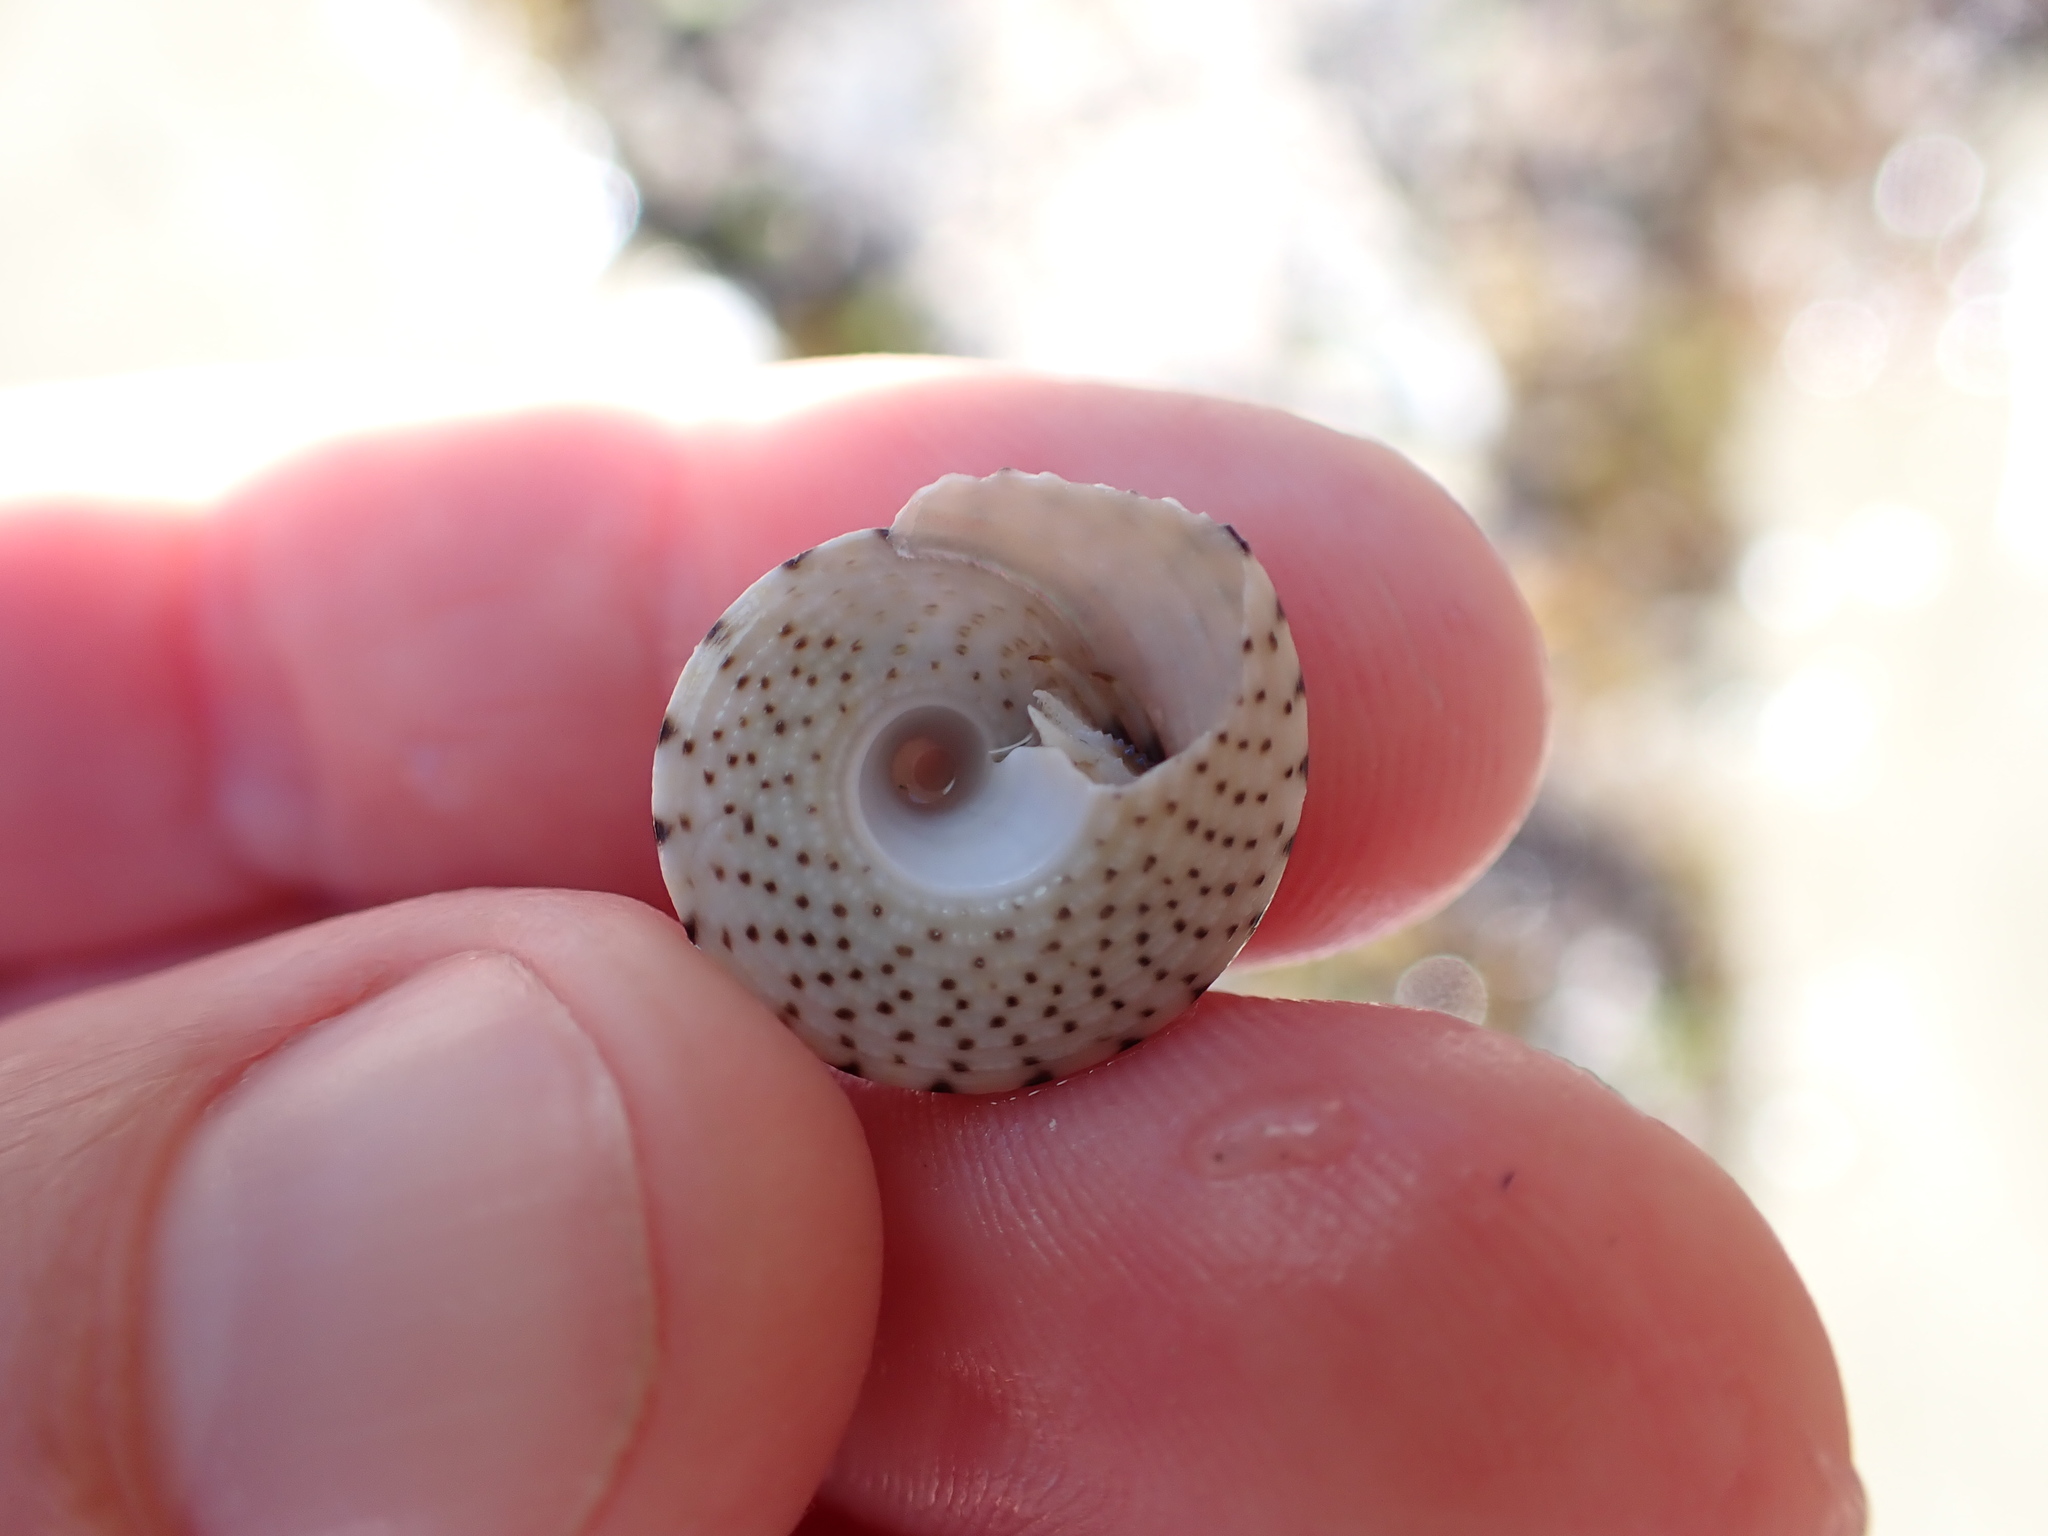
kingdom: Animalia
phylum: Mollusca
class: Gastropoda
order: Trochida
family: Trochidae
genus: Coelotrochus
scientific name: Coelotrochus tiaratus
